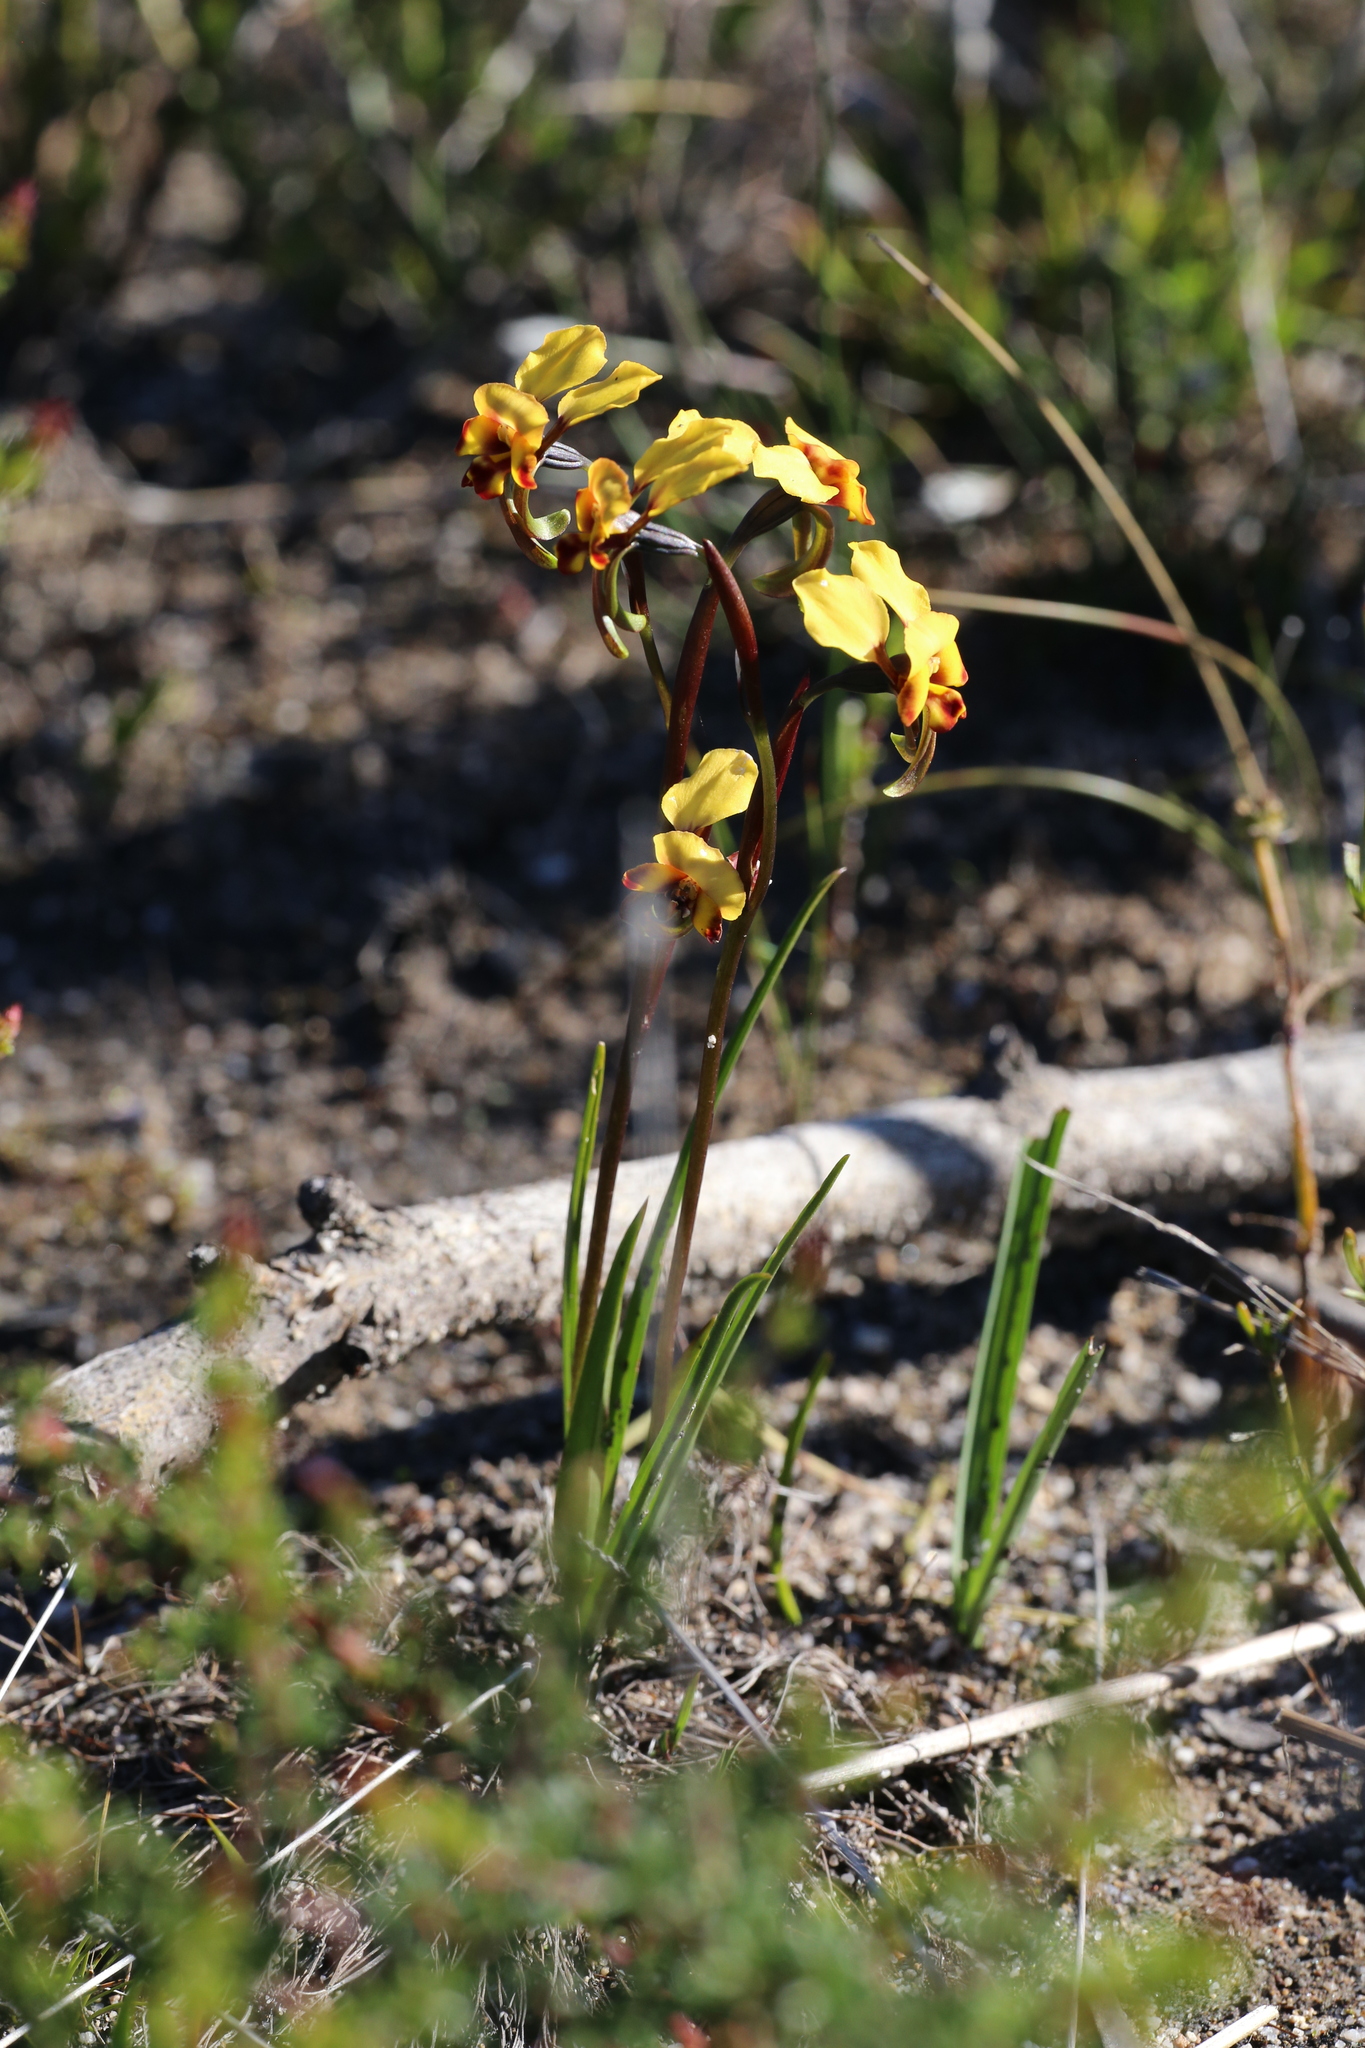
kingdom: Plantae
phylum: Tracheophyta
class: Liliopsida
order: Asparagales
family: Orchidaceae
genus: Diuris
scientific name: Diuris littoralis
